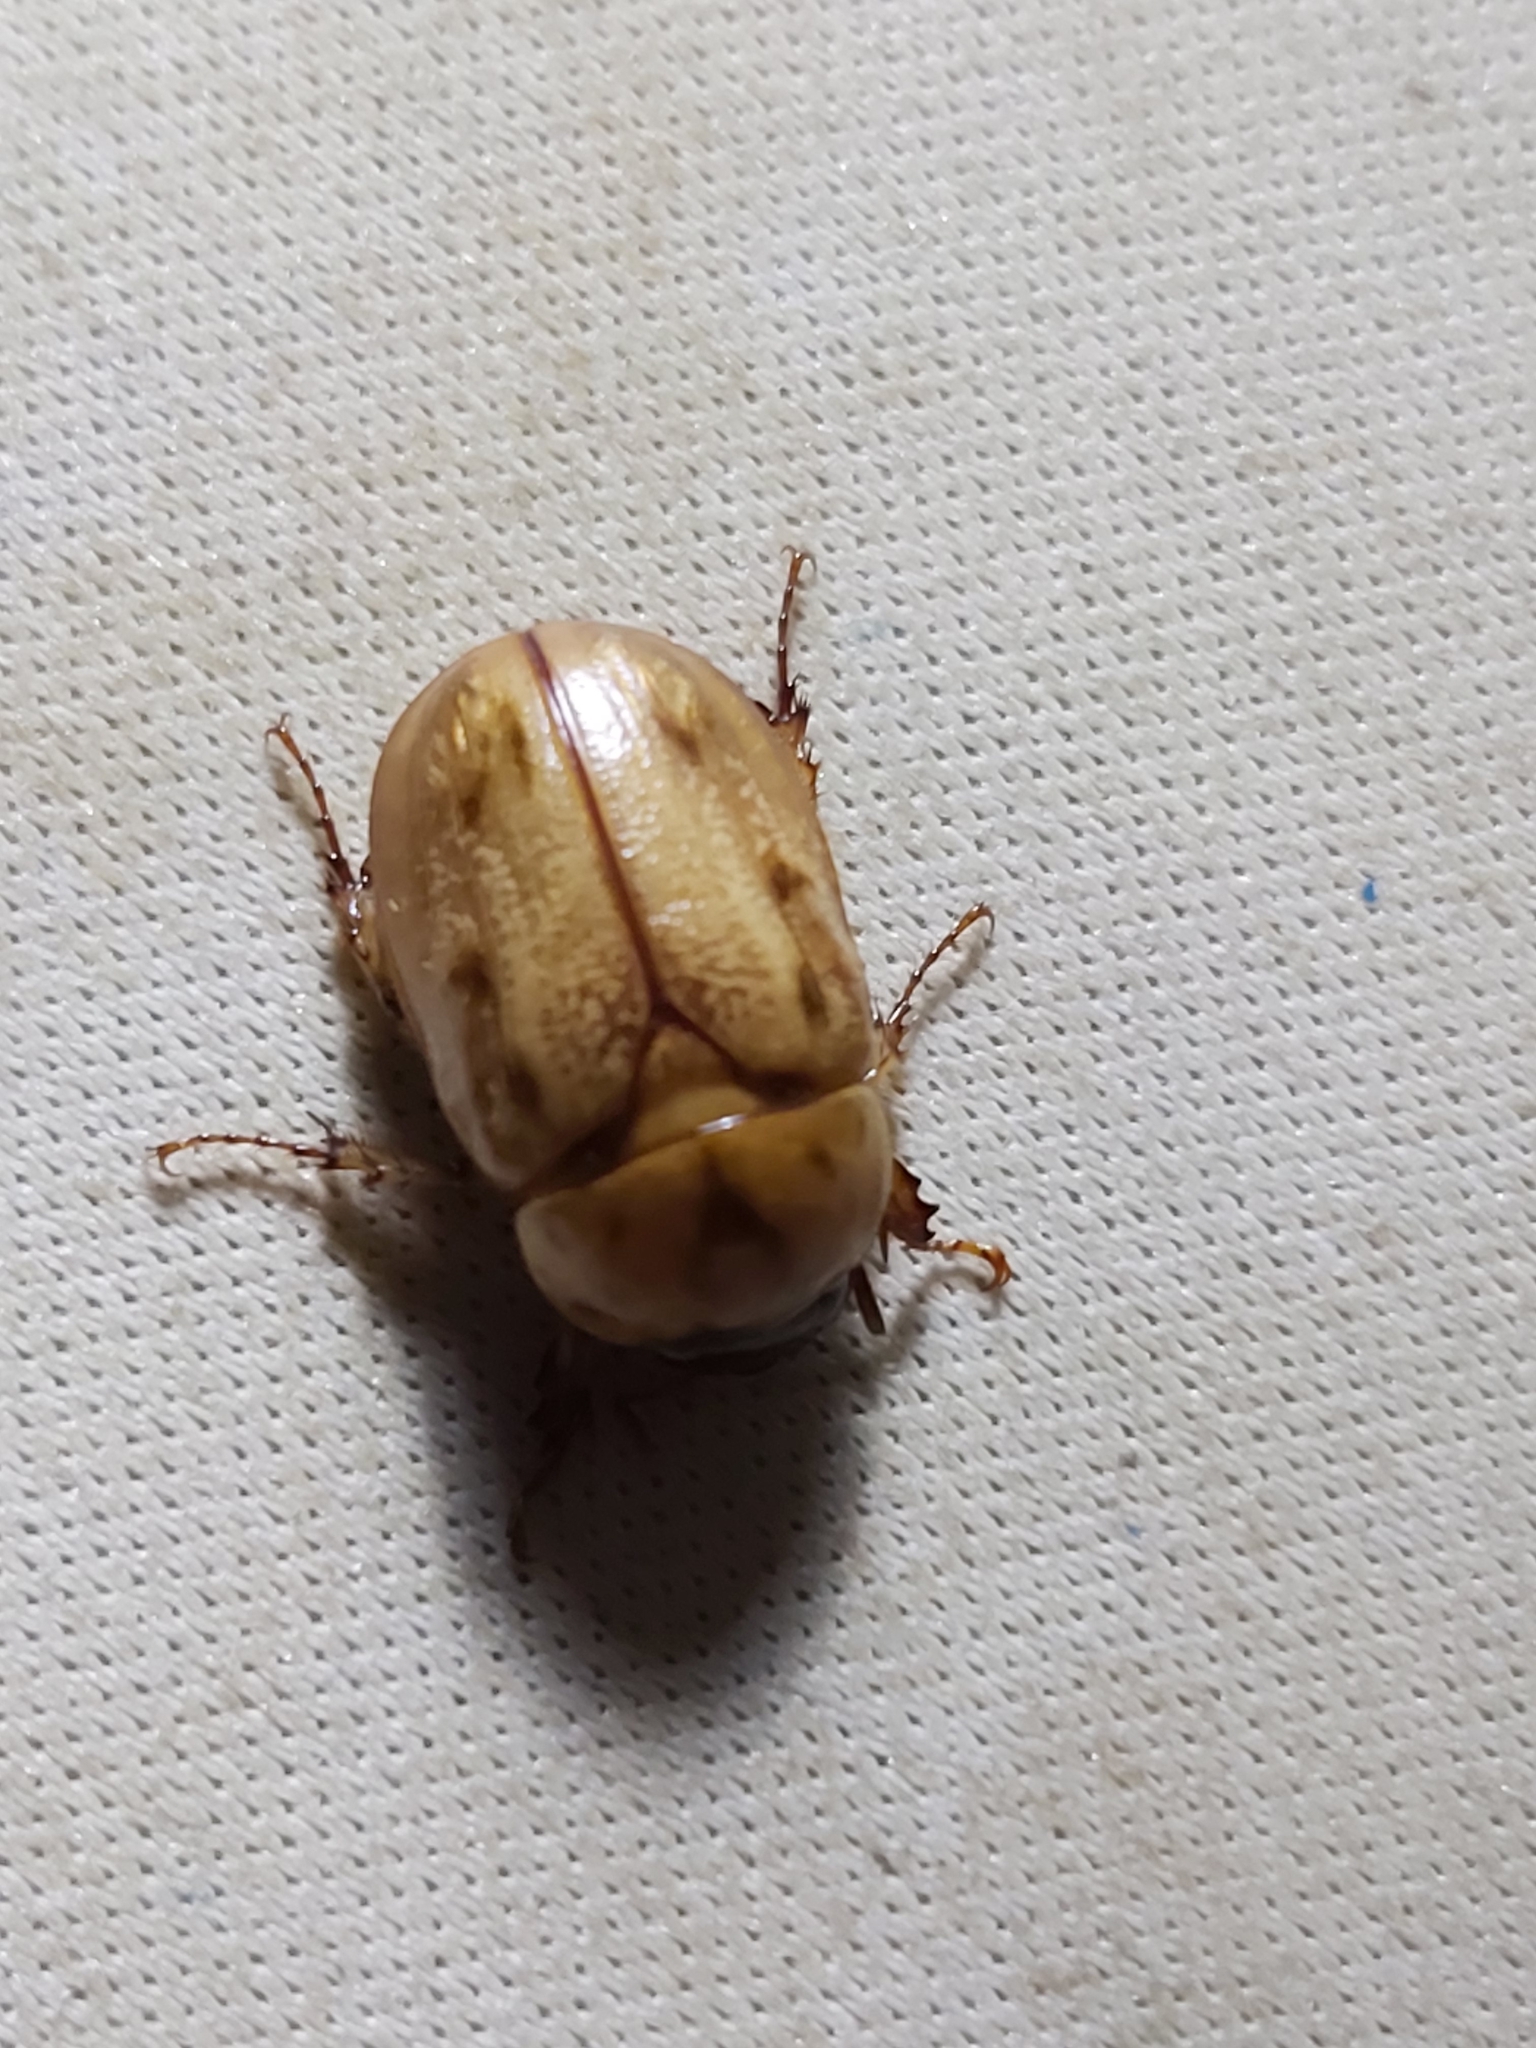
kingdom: Animalia
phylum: Arthropoda
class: Insecta
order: Coleoptera
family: Scarabaeidae
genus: Cyclocephala
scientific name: Cyclocephala signaticollis
